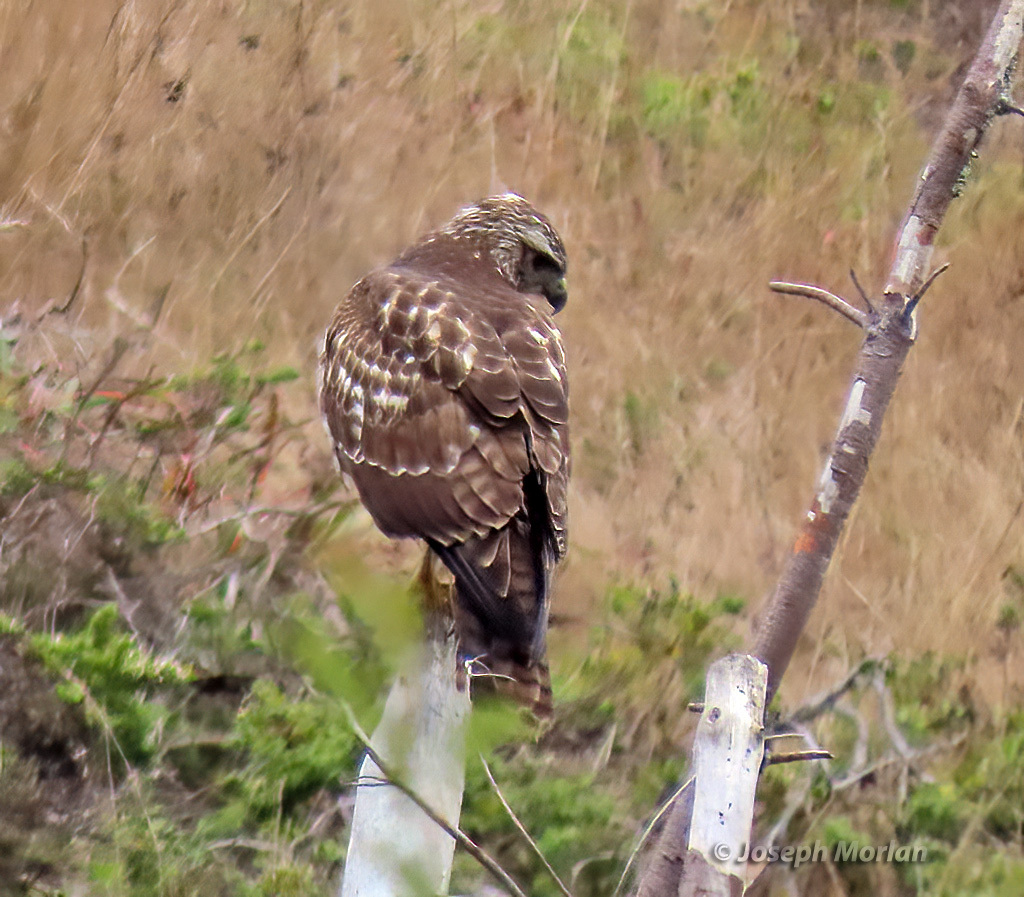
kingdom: Animalia
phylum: Chordata
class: Aves
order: Accipitriformes
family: Accipitridae
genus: Buteo
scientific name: Buteo jamaicensis
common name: Red-tailed hawk
